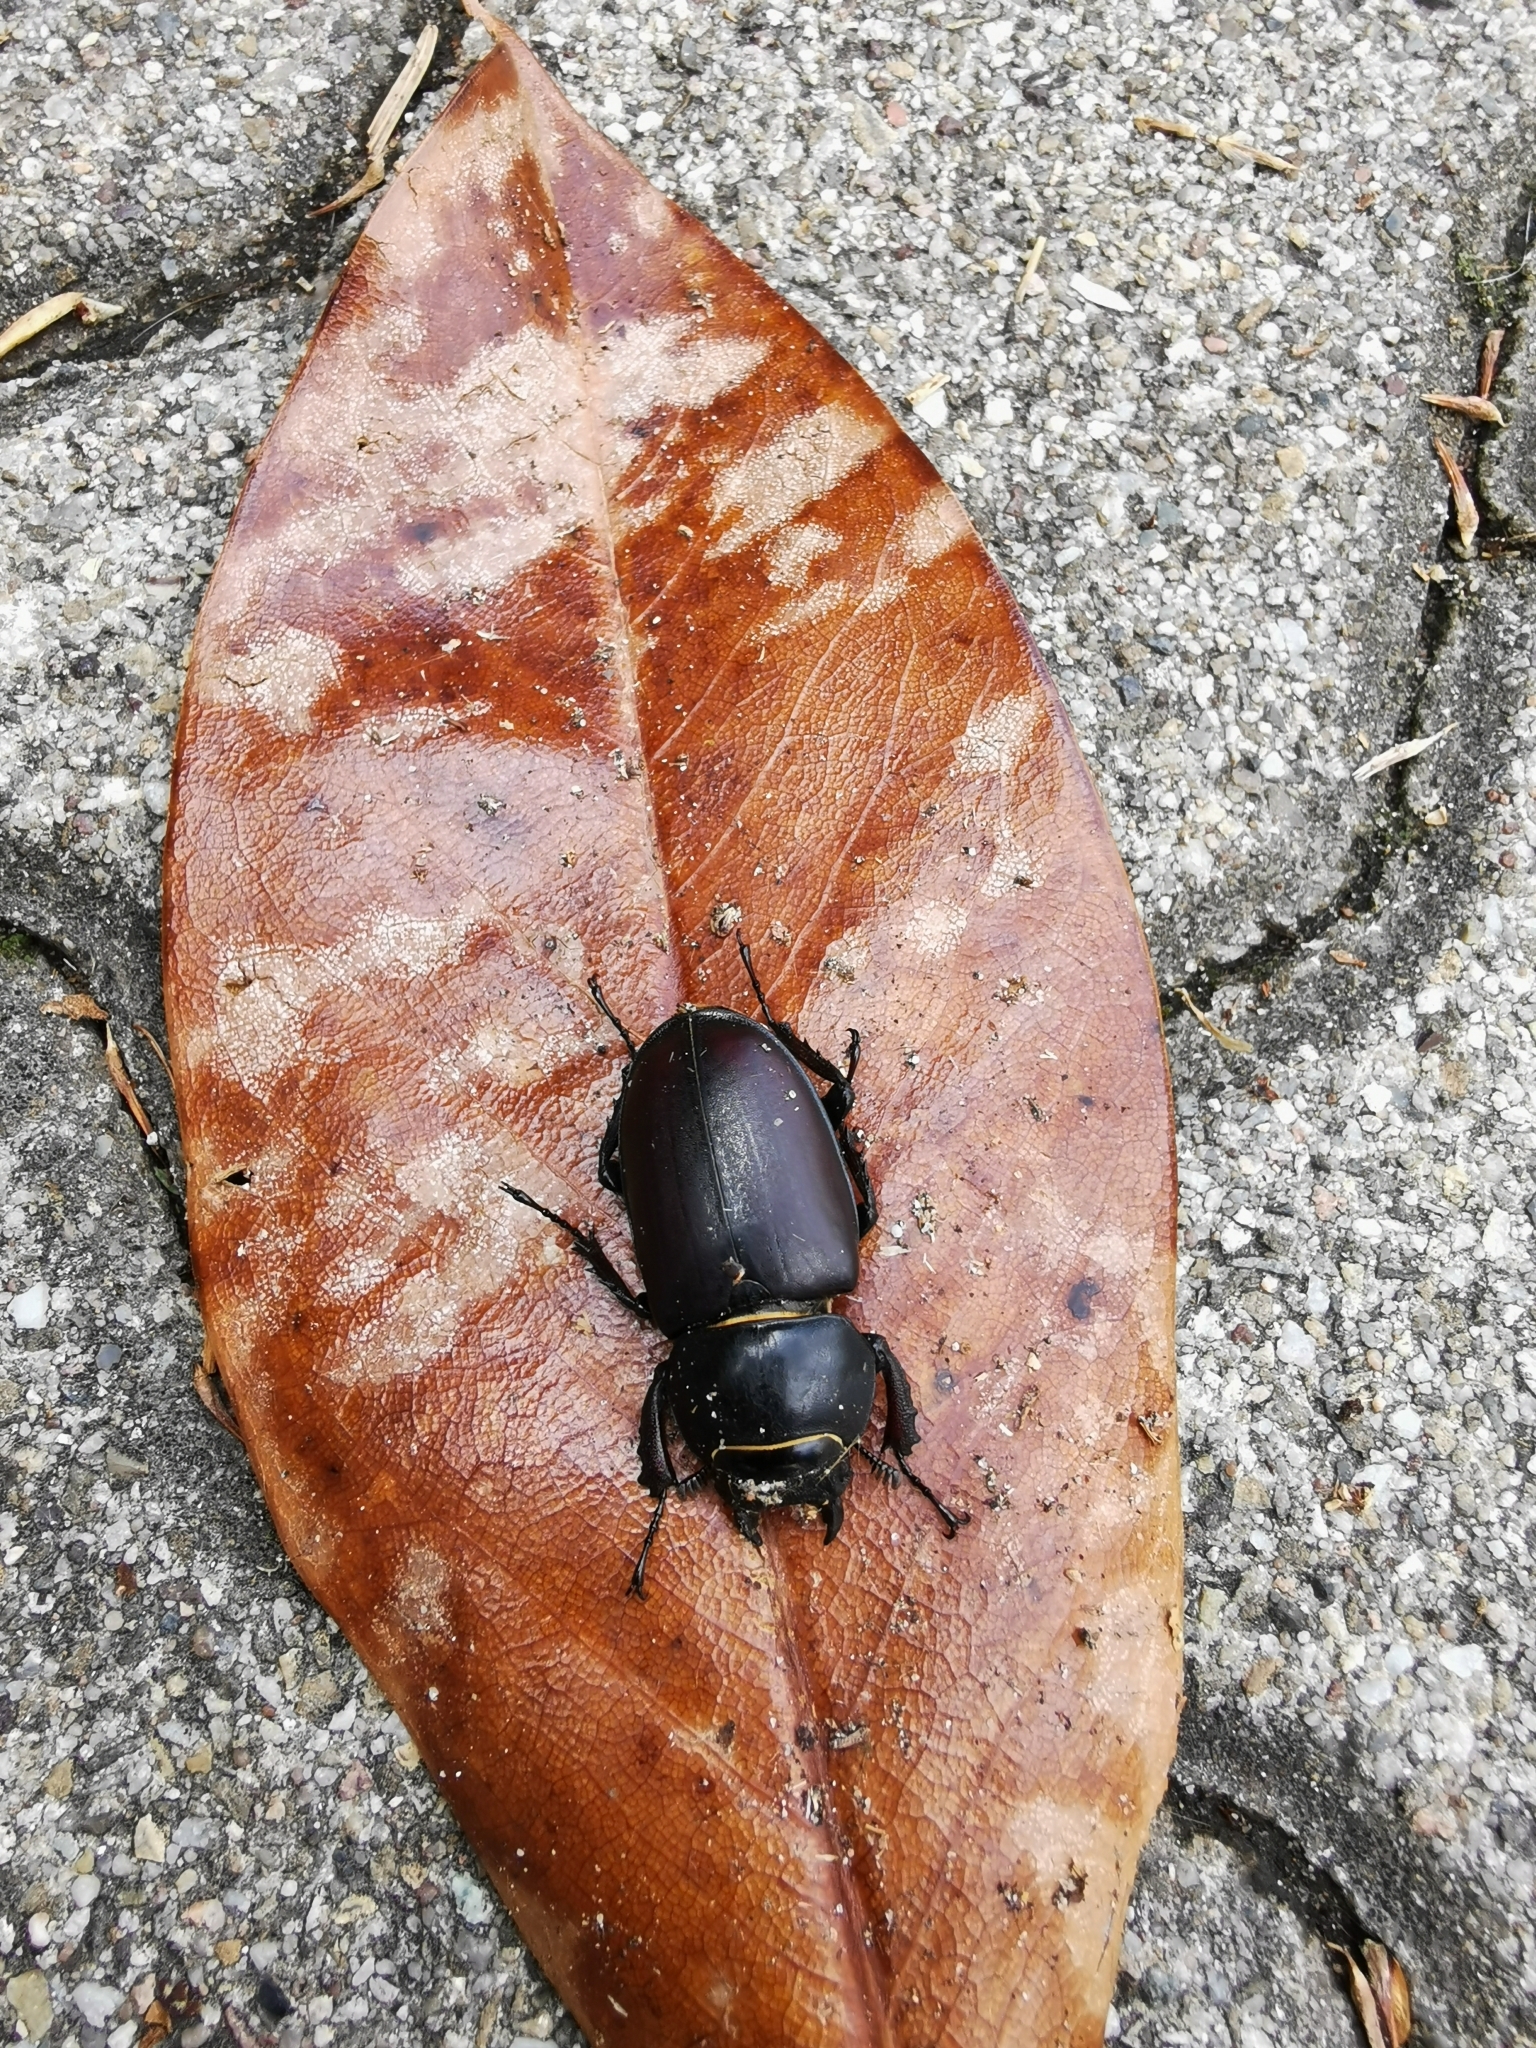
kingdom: Animalia
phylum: Arthropoda
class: Insecta
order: Coleoptera
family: Lucanidae
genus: Lucanus
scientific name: Lucanus cervus
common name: Stag beetle
